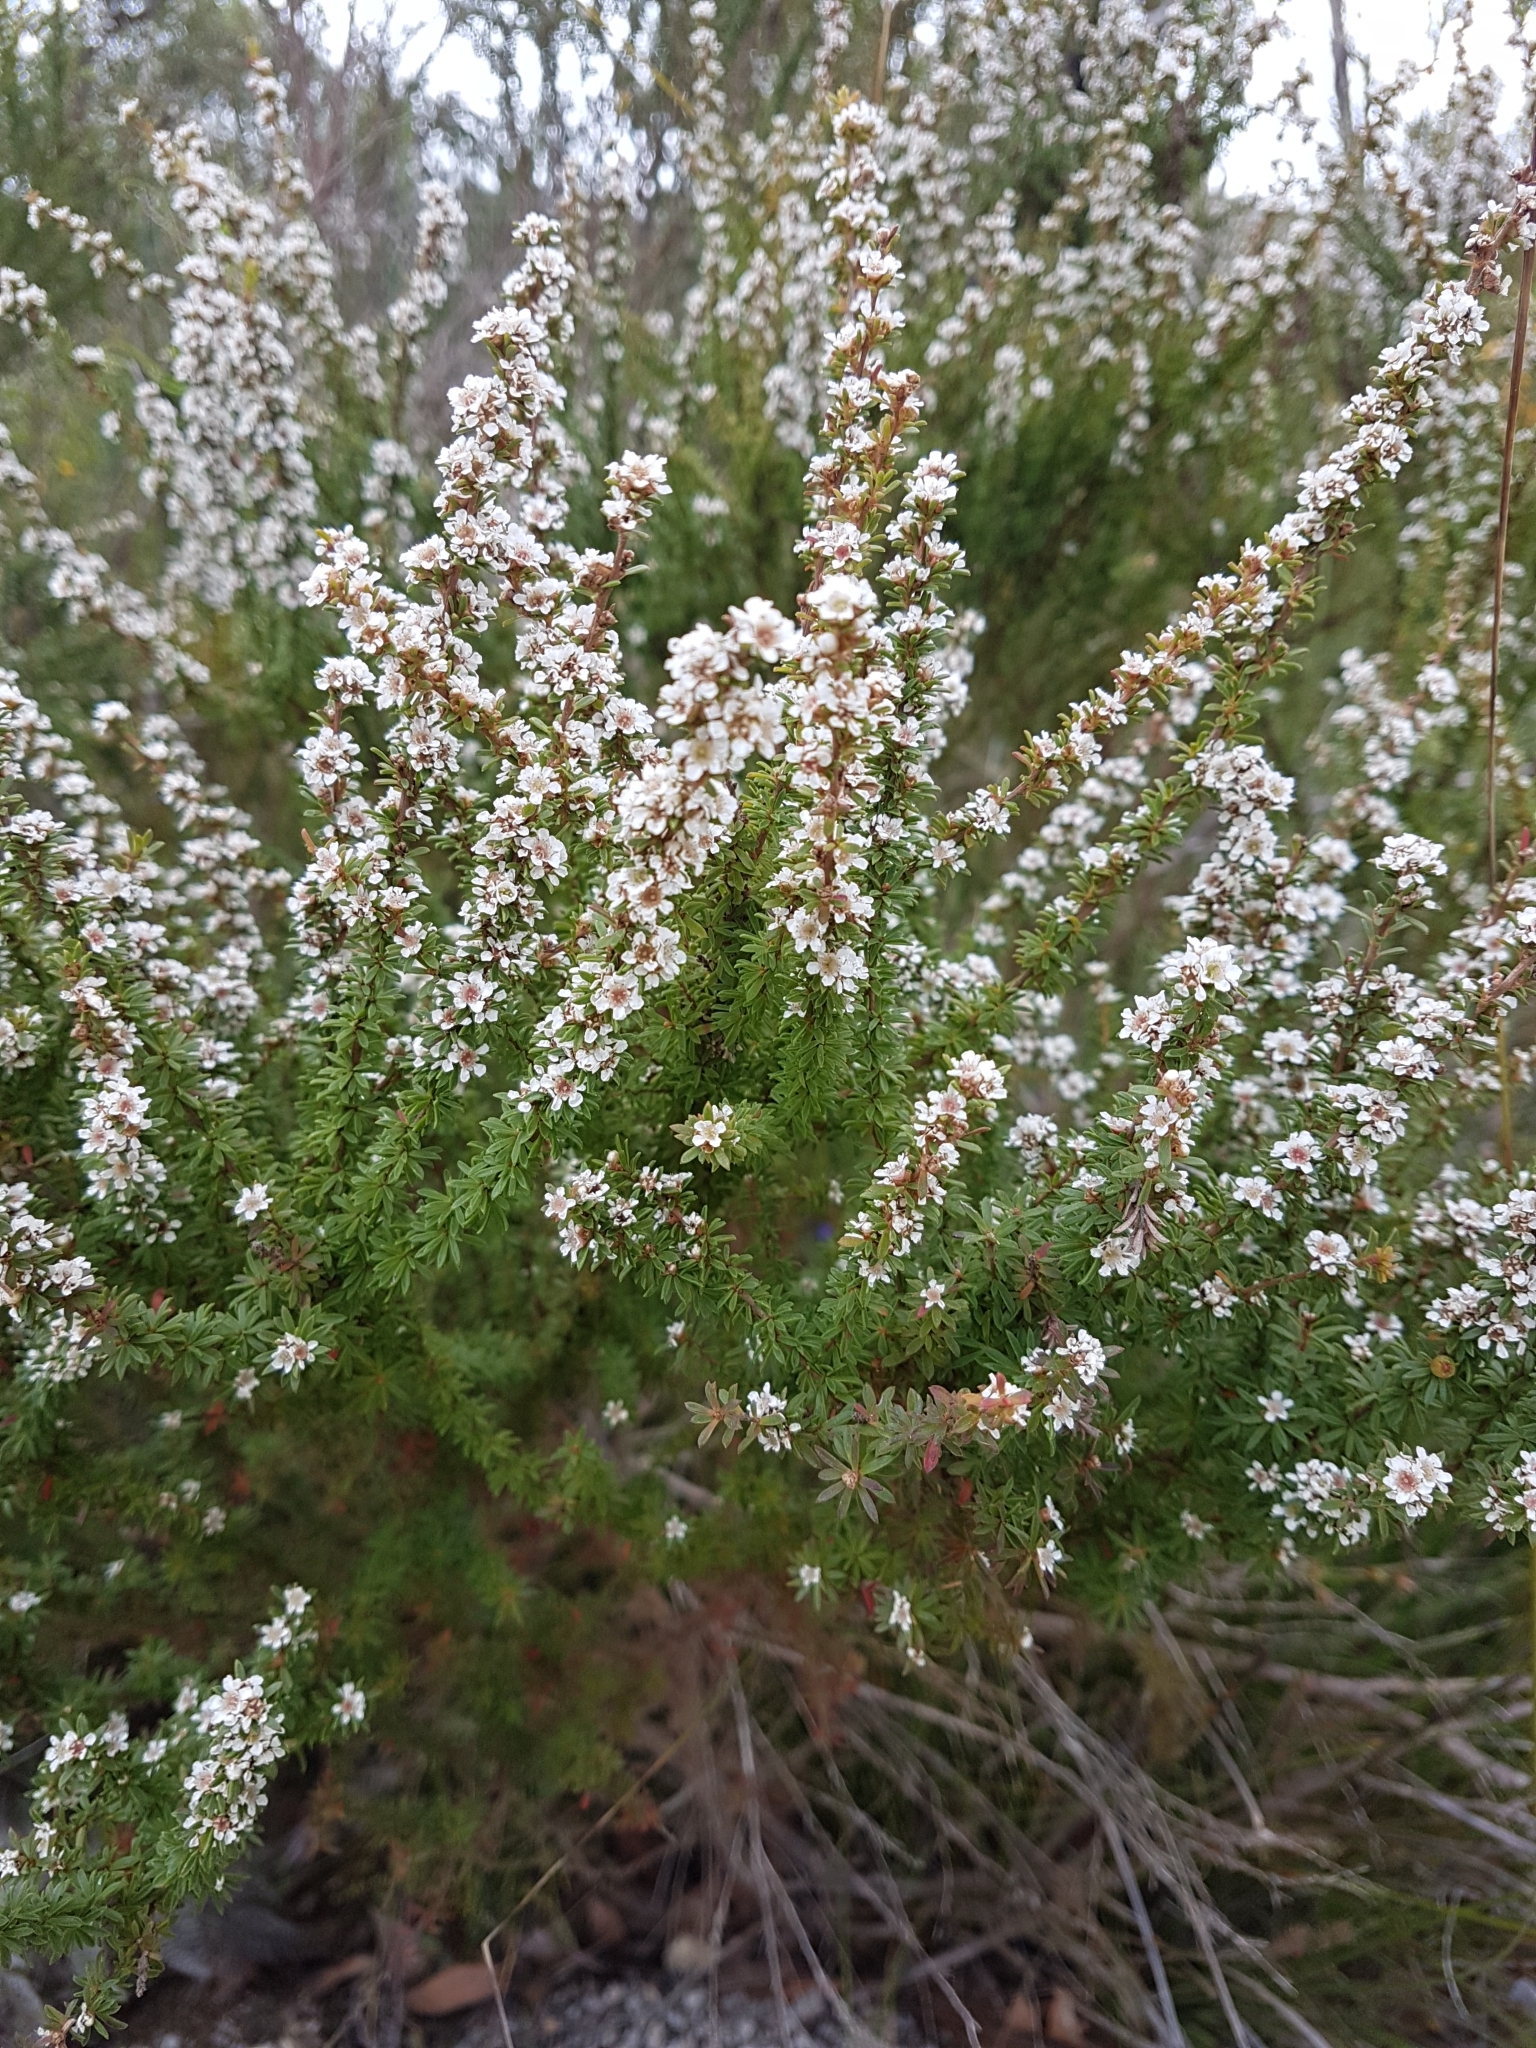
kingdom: Plantae
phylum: Tracheophyta
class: Magnoliopsida
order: Myrtales
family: Myrtaceae
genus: Taxandria
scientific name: Taxandria parviceps
